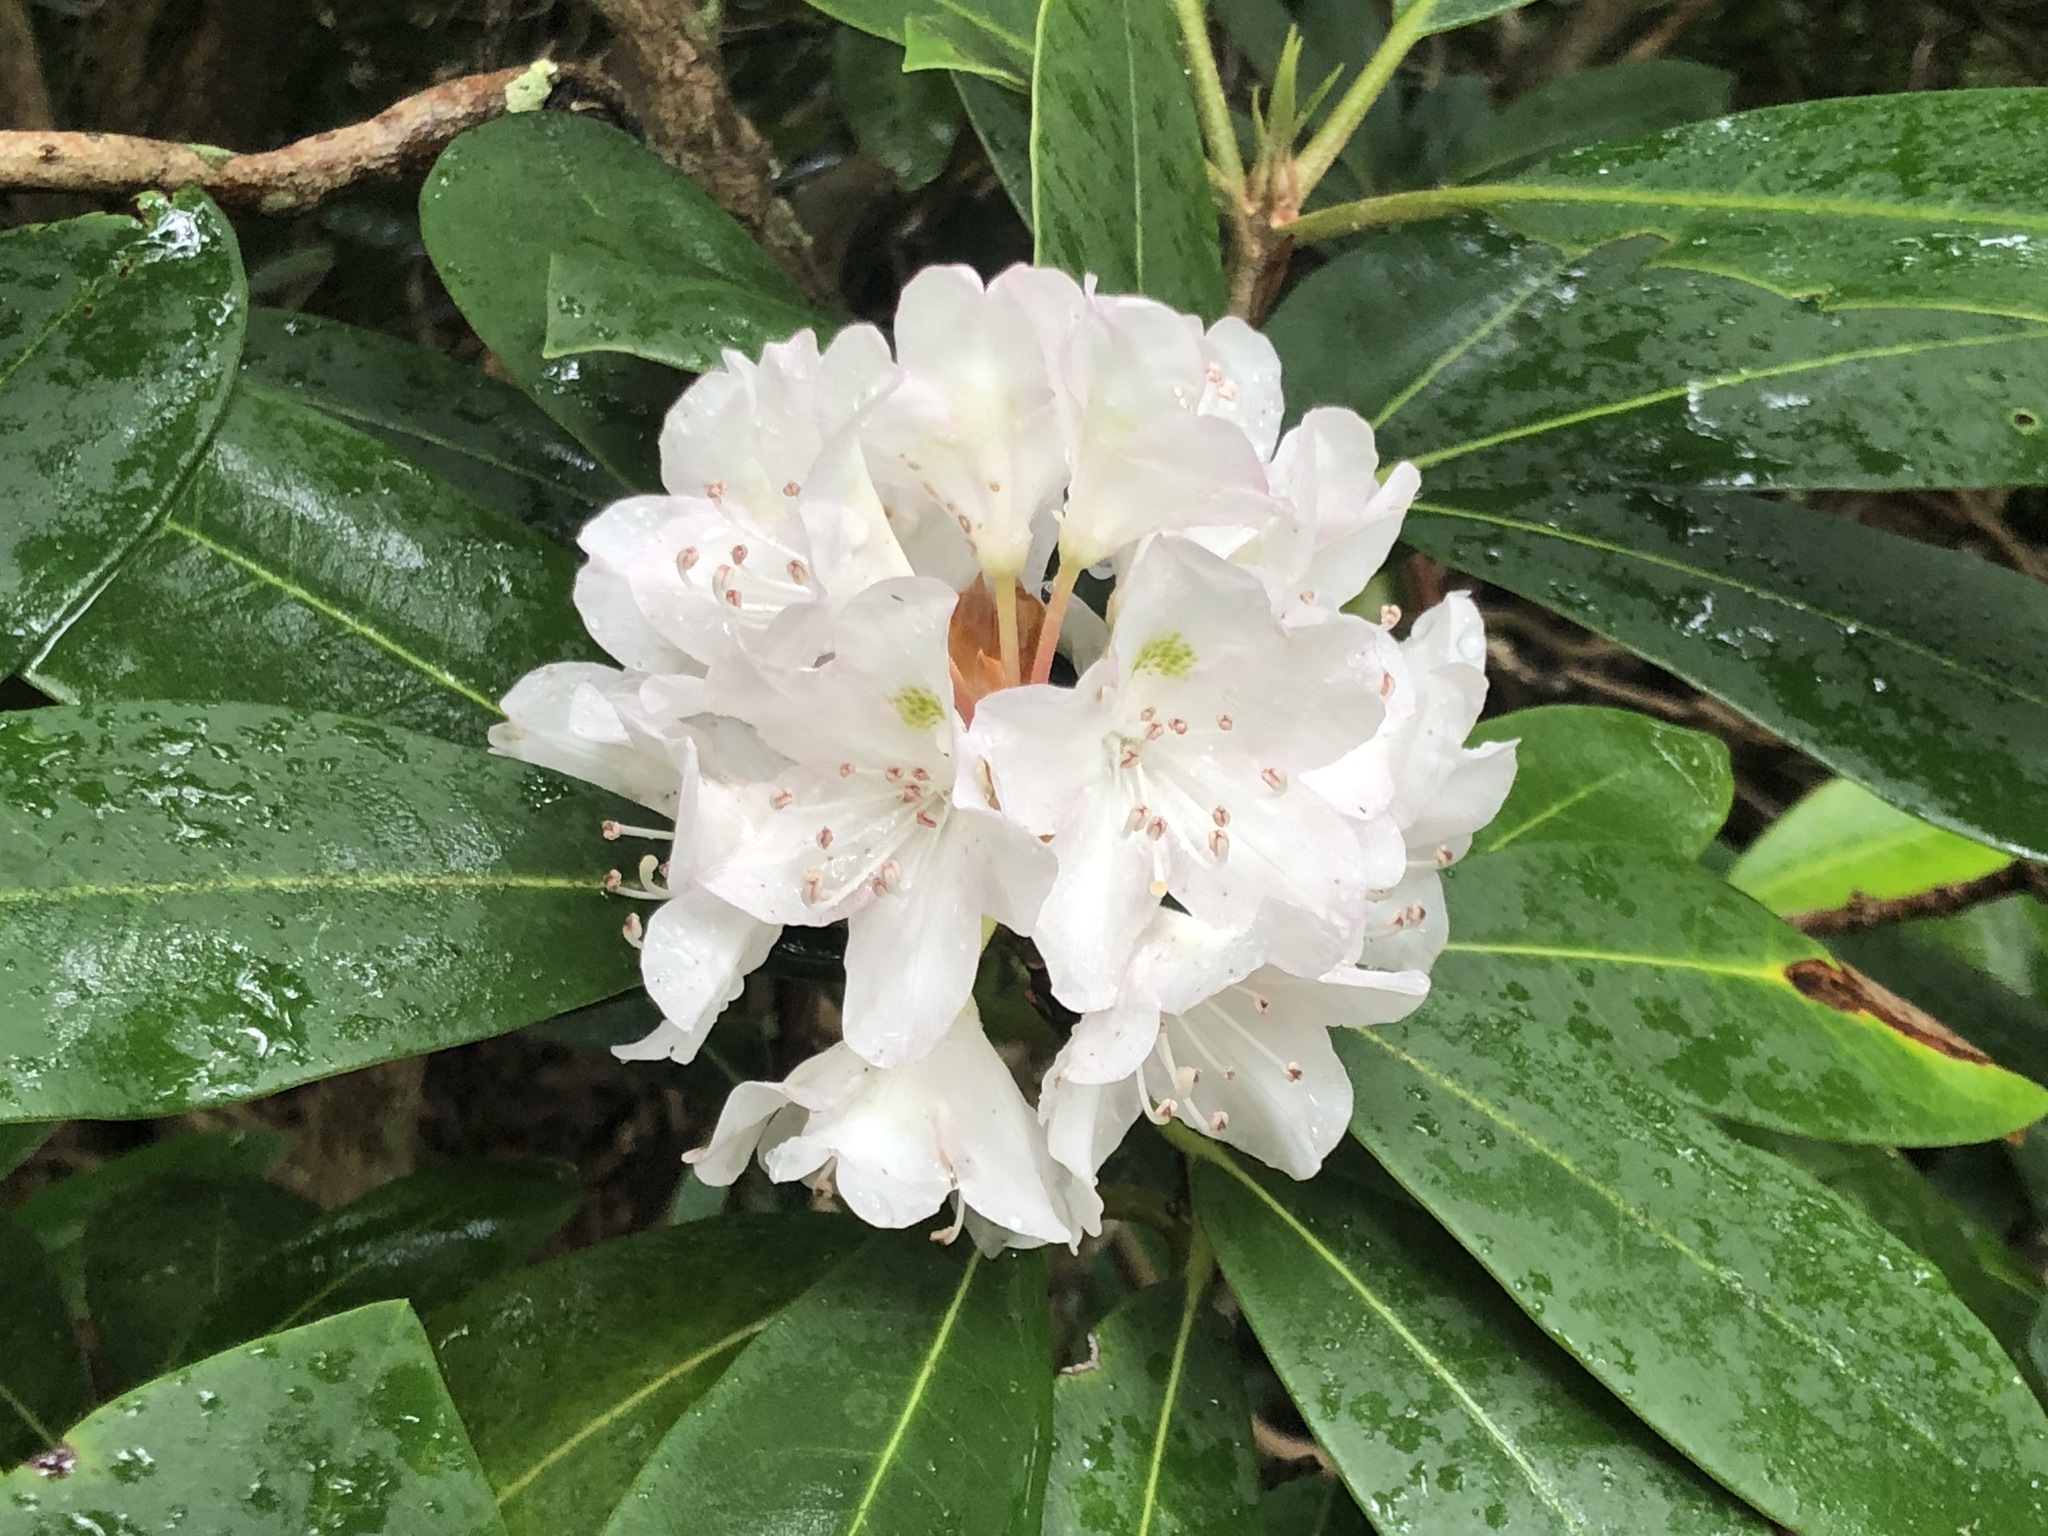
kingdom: Plantae
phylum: Tracheophyta
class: Magnoliopsida
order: Ericales
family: Ericaceae
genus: Rhododendron
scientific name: Rhododendron maximum
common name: Great rhododendron
